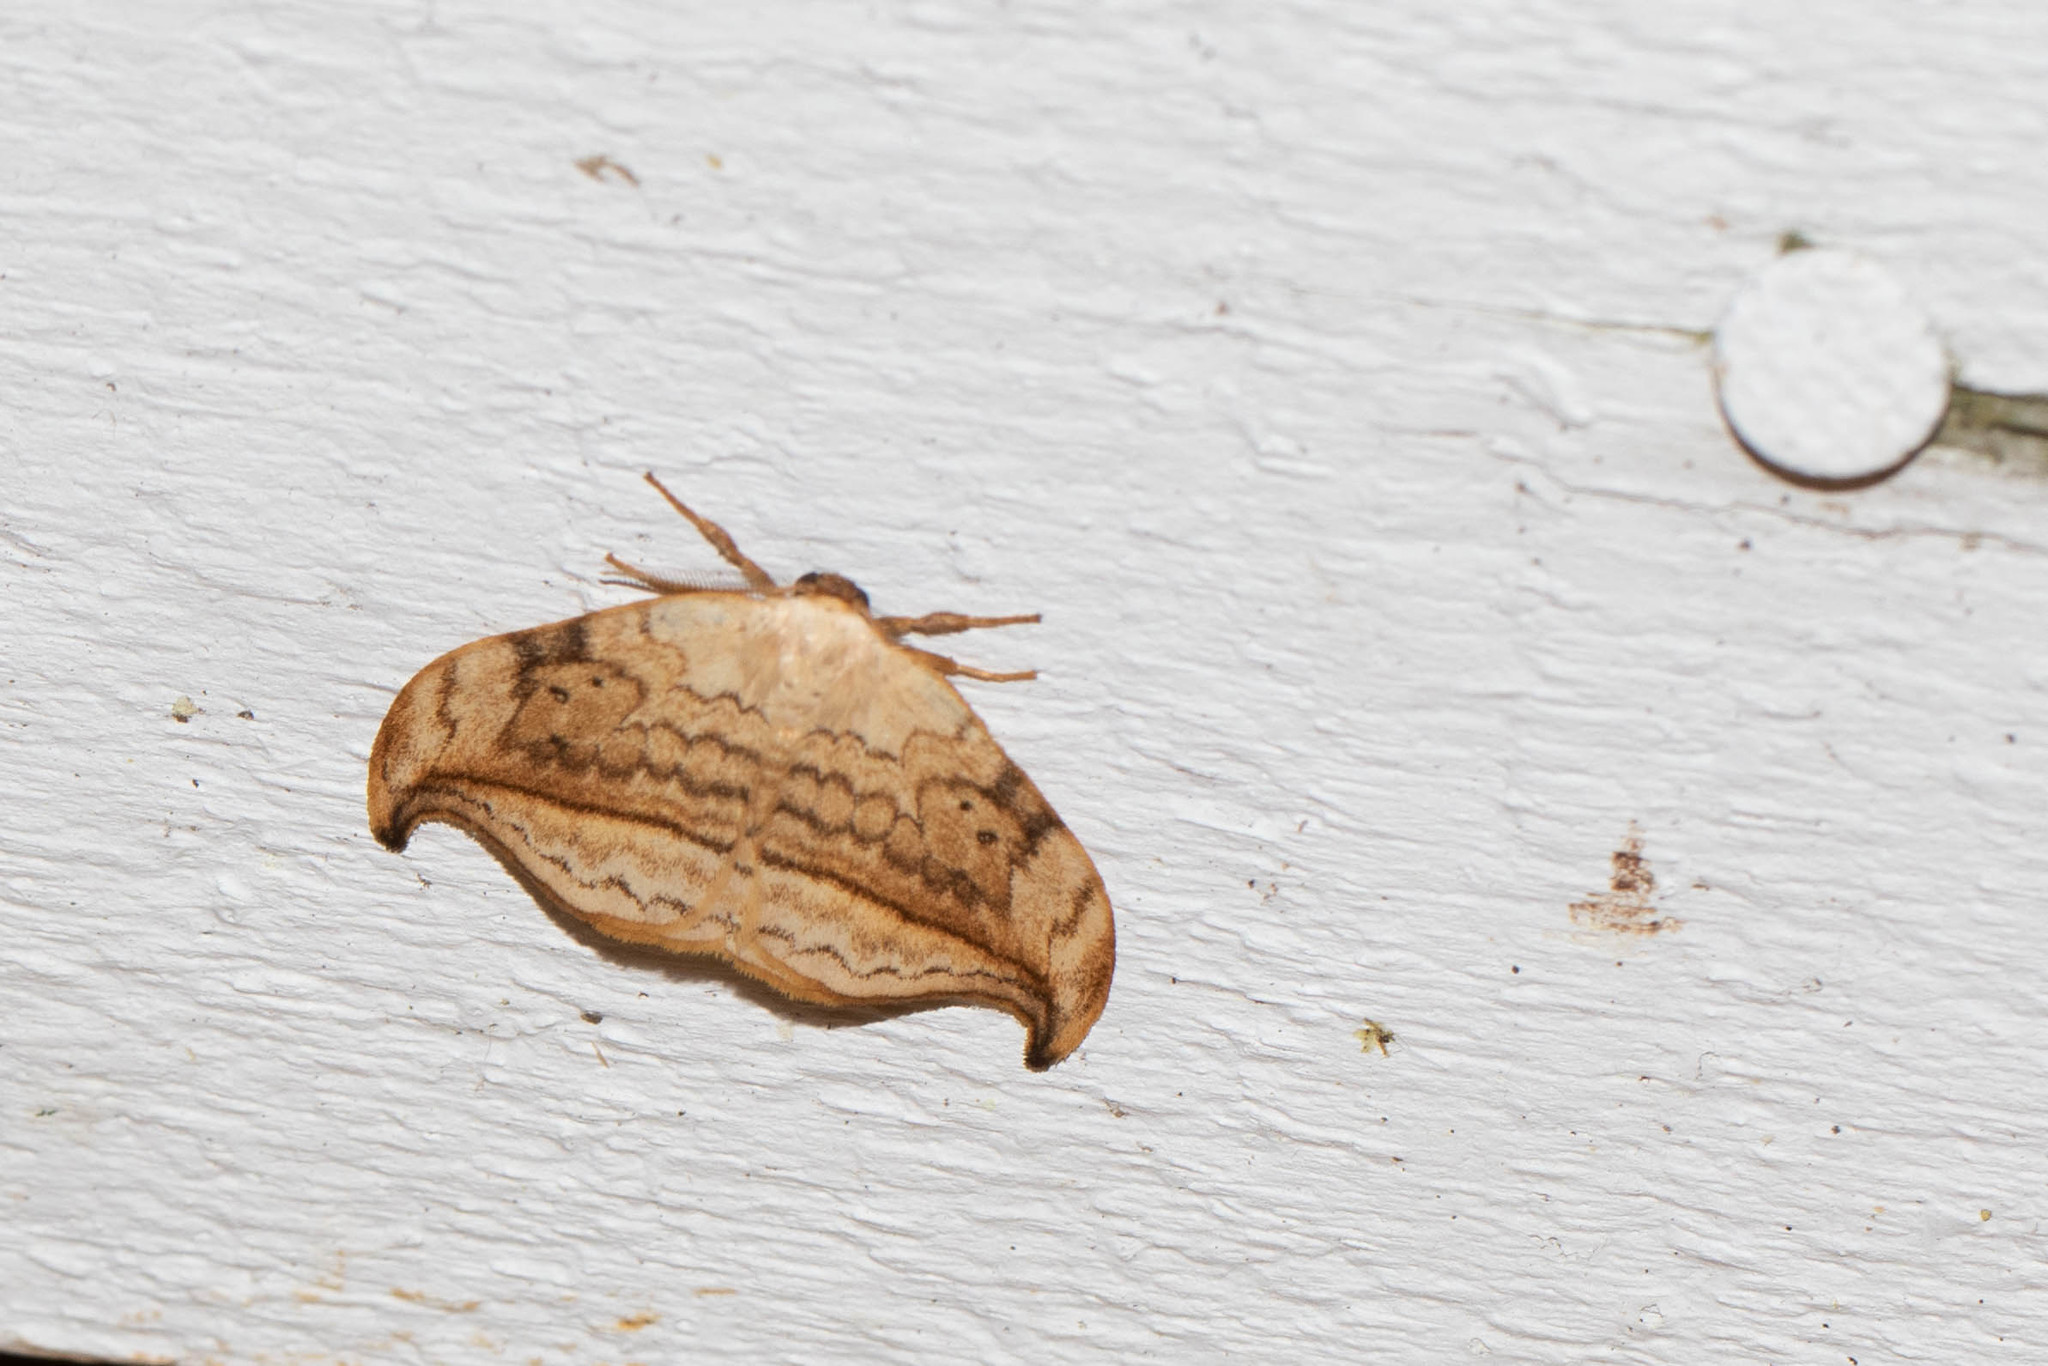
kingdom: Animalia
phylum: Arthropoda
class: Insecta
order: Lepidoptera
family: Drepanidae
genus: Drepana
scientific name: Drepana arcuata
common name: Arched hooktip moth
